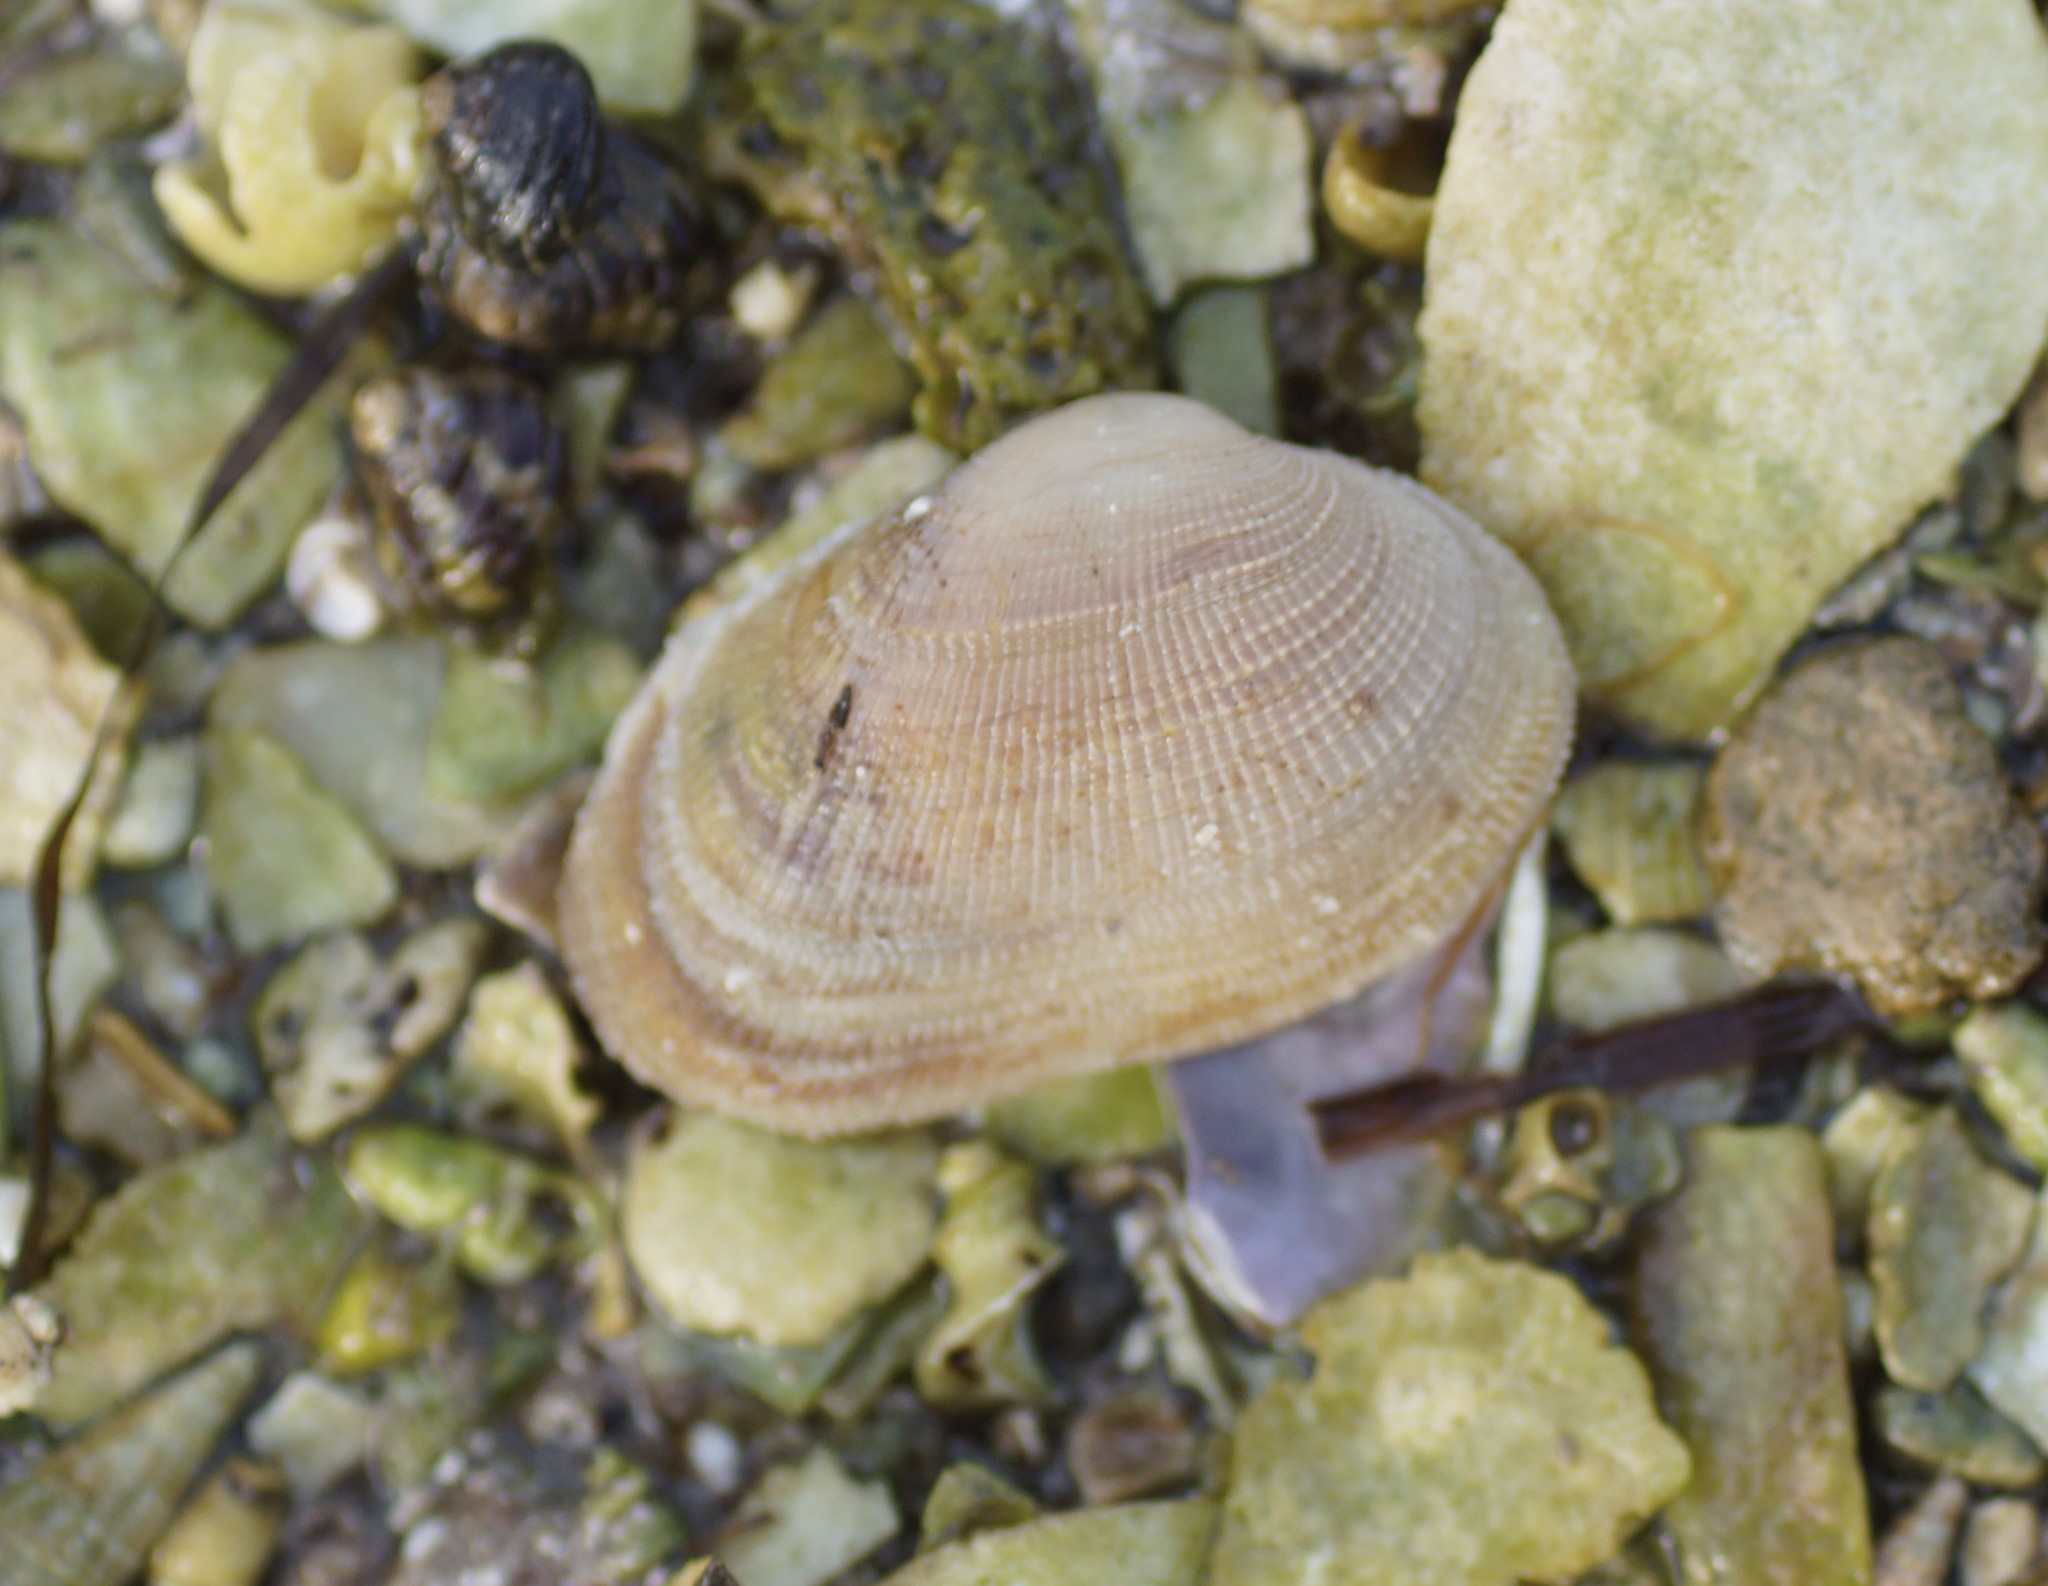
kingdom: Animalia
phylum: Mollusca
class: Bivalvia
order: Venerida
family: Veneridae
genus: Irus
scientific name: Irus crenatus
